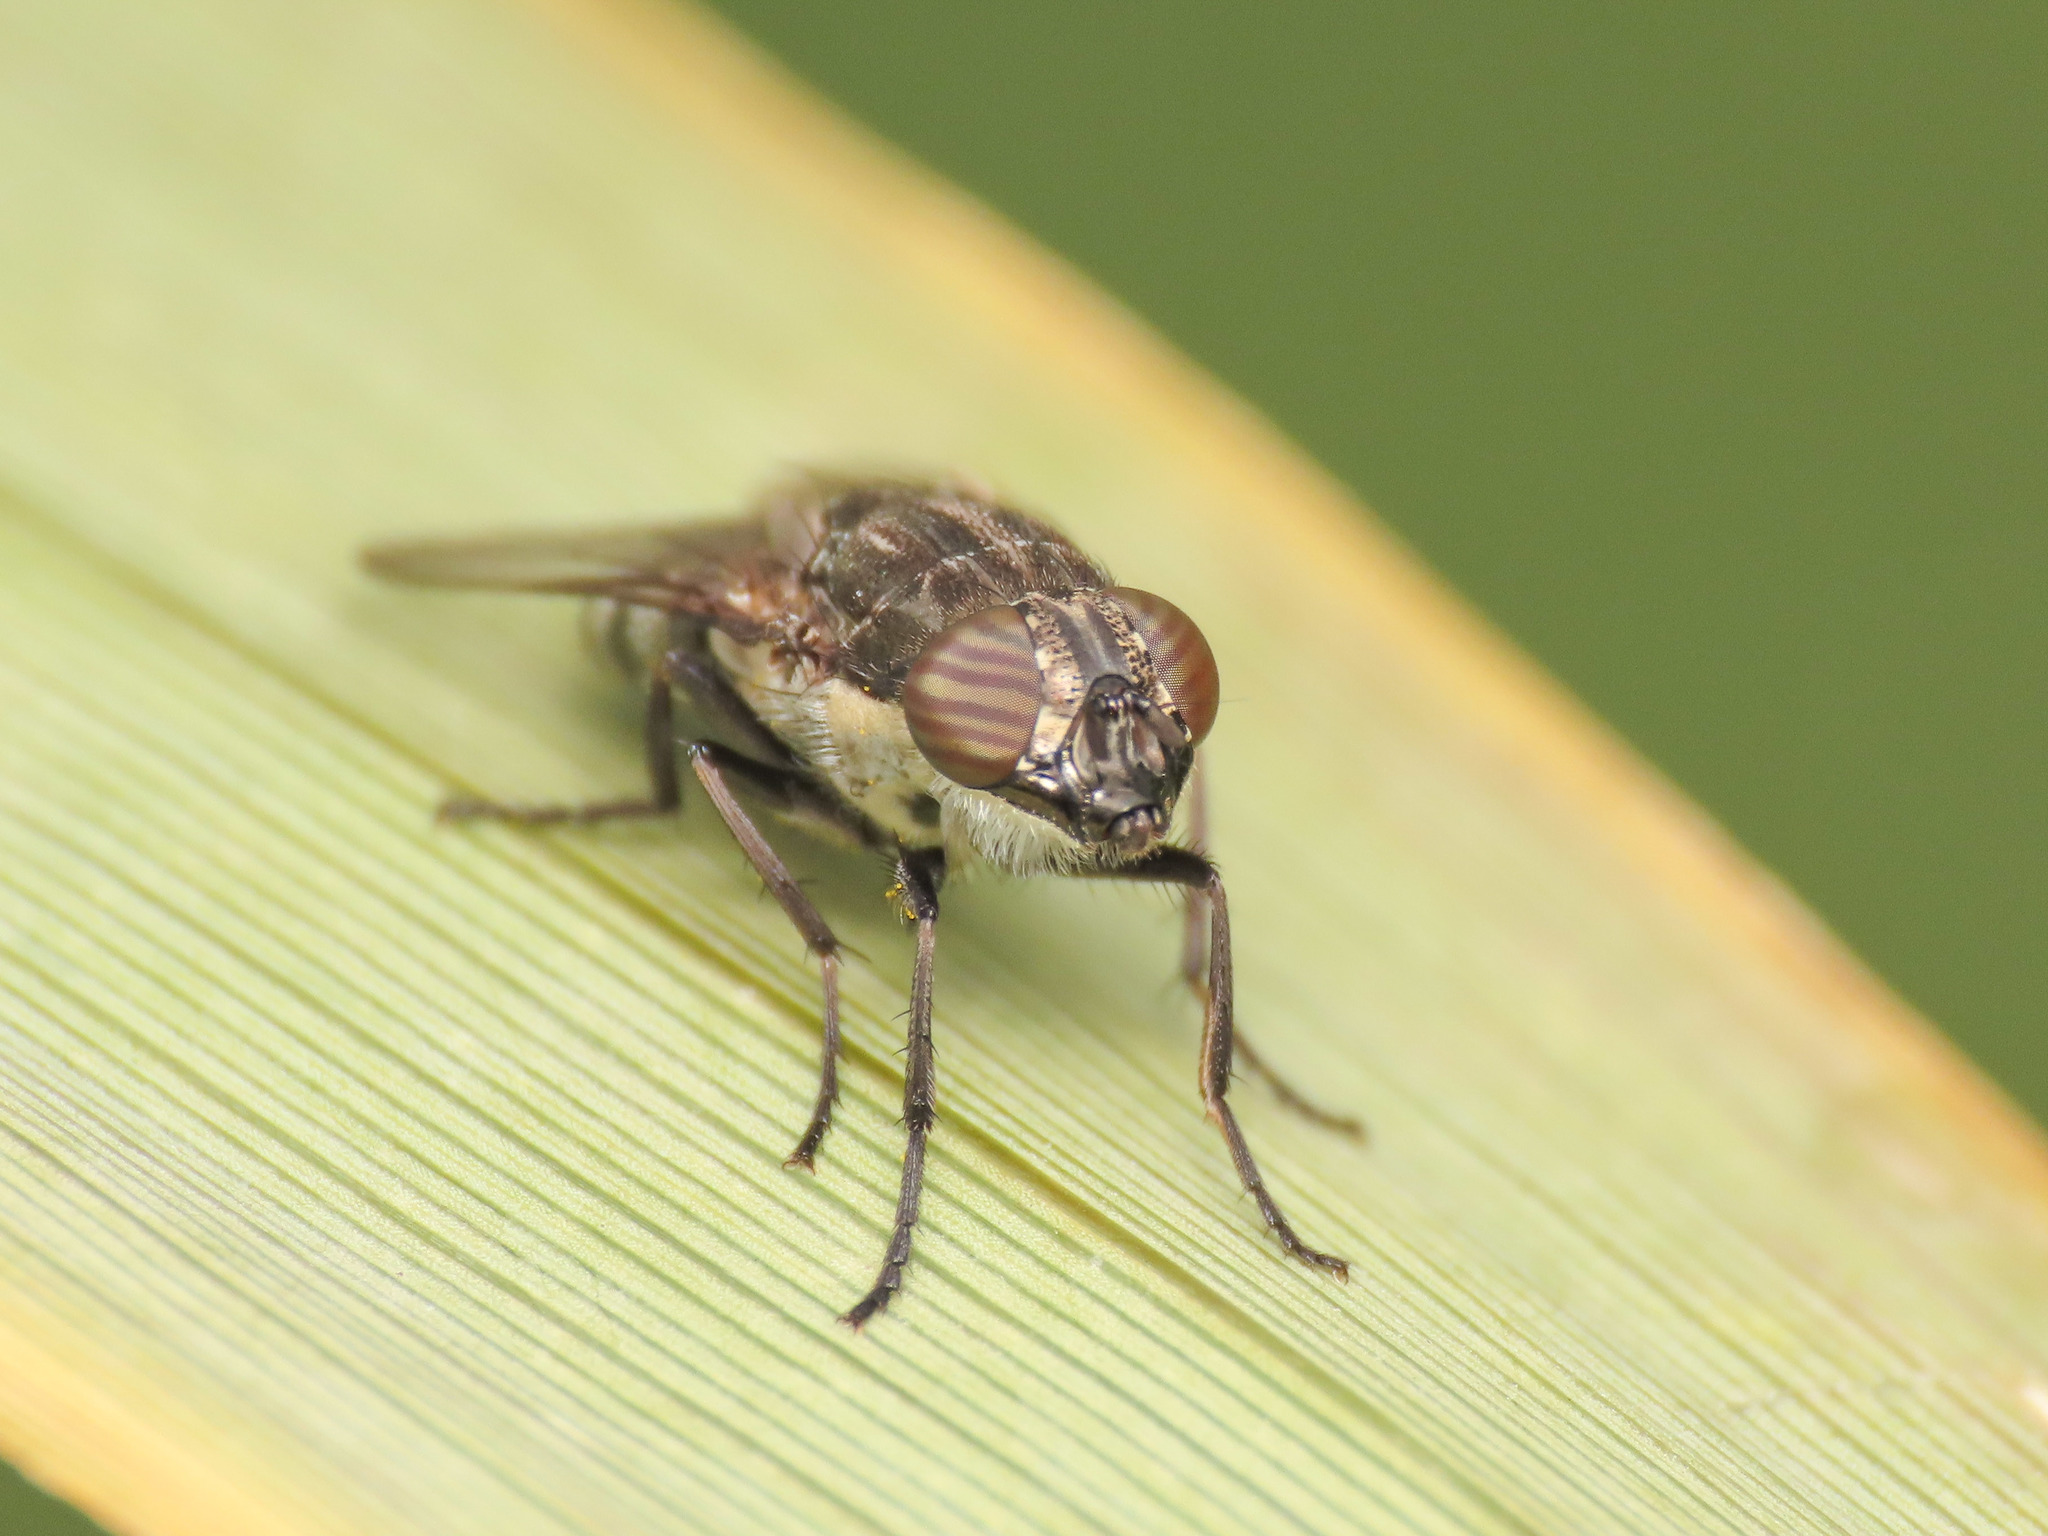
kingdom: Animalia
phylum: Arthropoda
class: Insecta
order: Diptera
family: Calliphoridae
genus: Stomorhina
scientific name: Stomorhina lunata
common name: Locust blowfly
